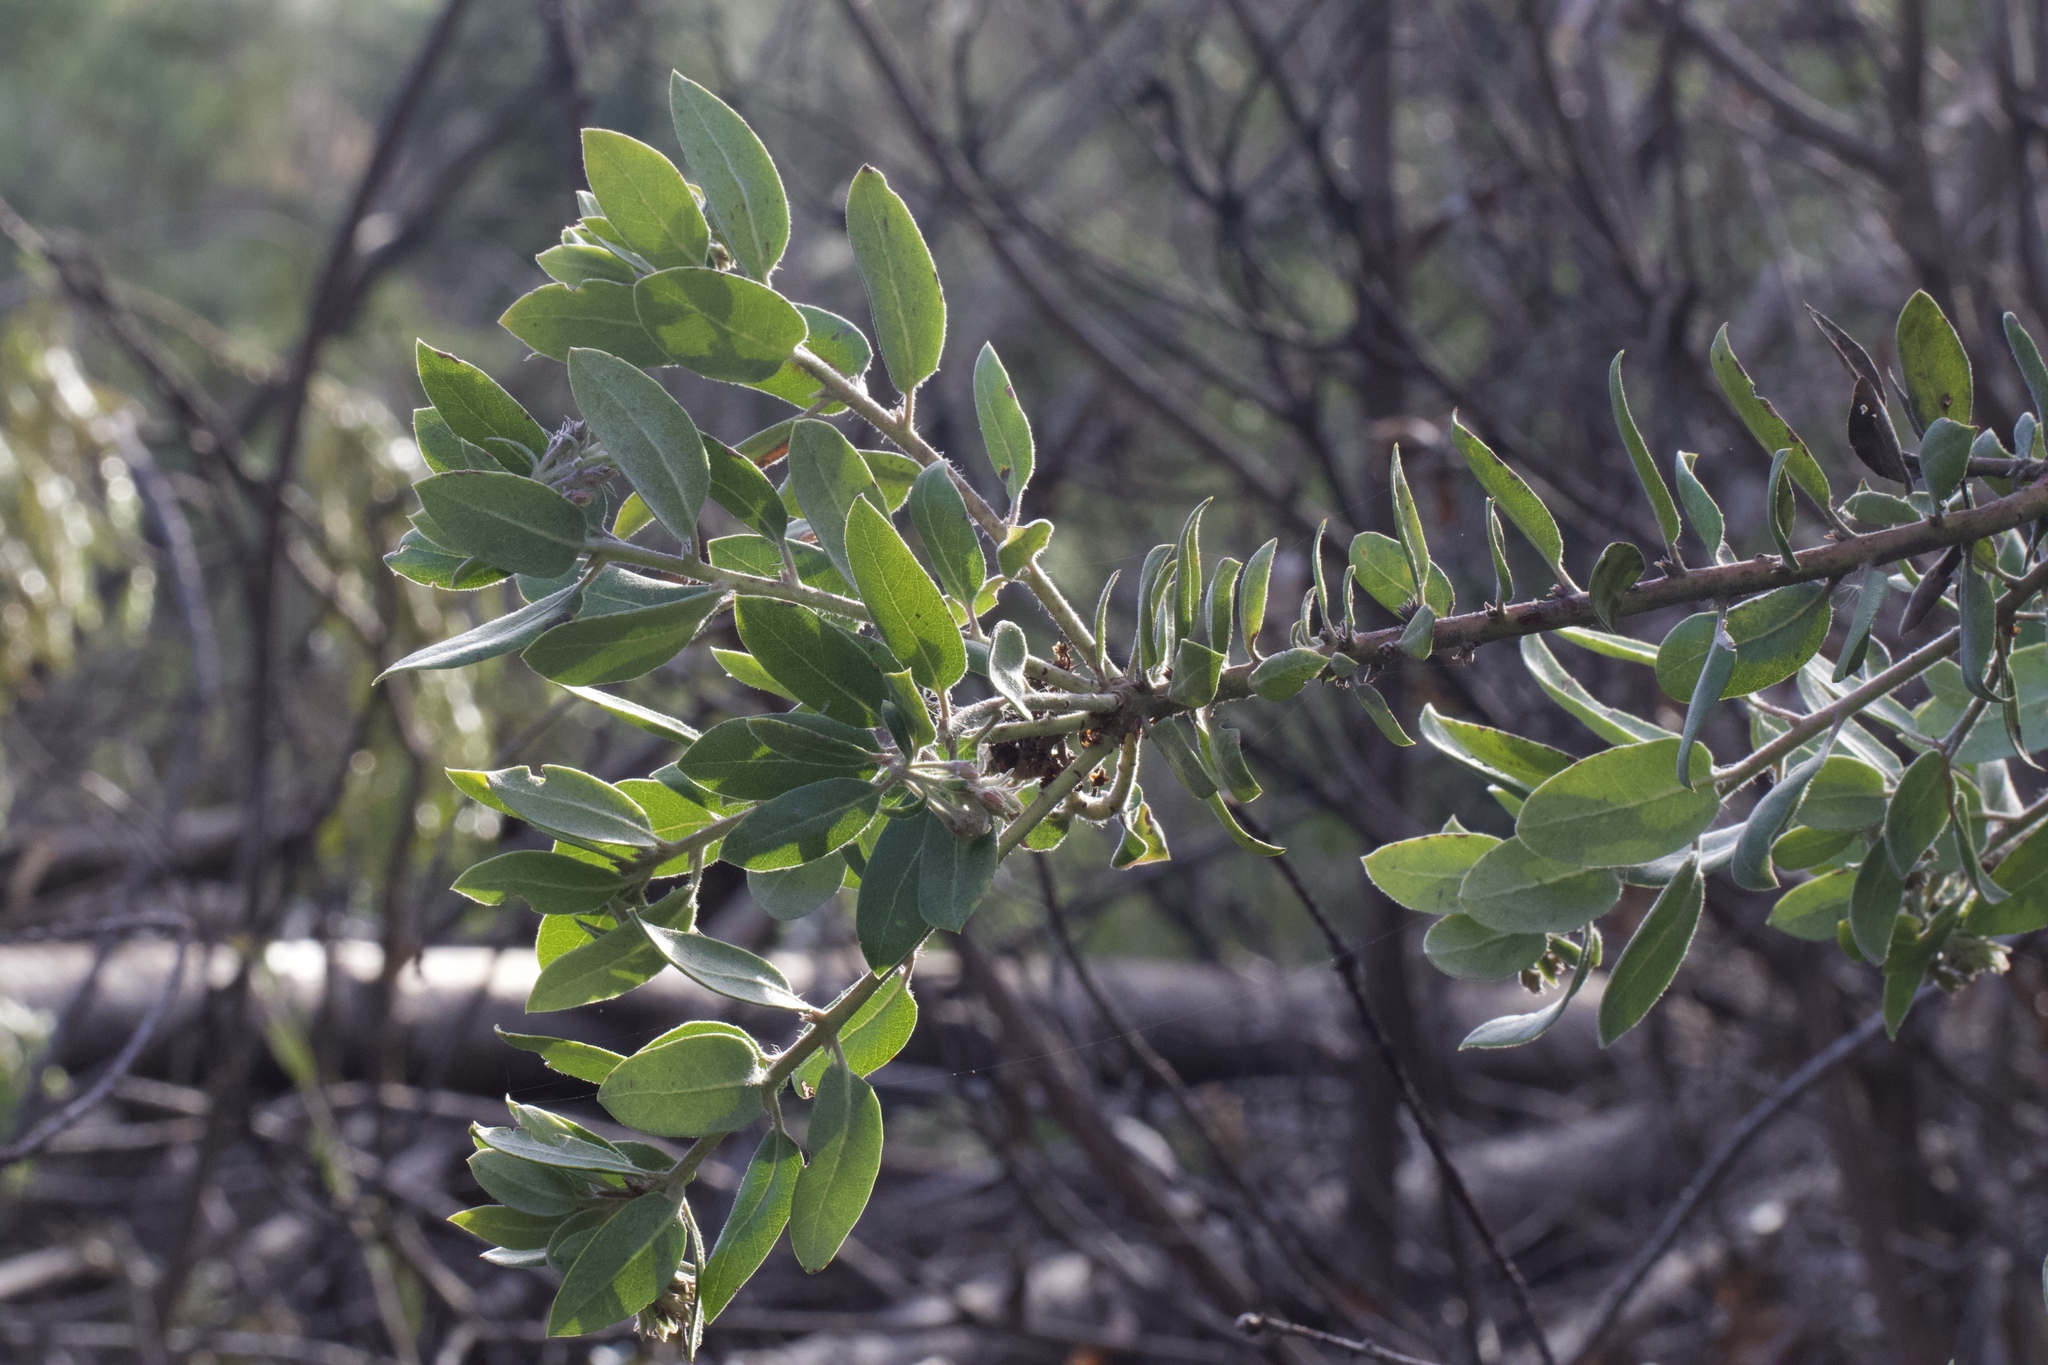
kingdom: Plantae
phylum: Tracheophyta
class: Magnoliopsida
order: Ericales
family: Ericaceae
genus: Arctostaphylos
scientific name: Arctostaphylos crustacea
